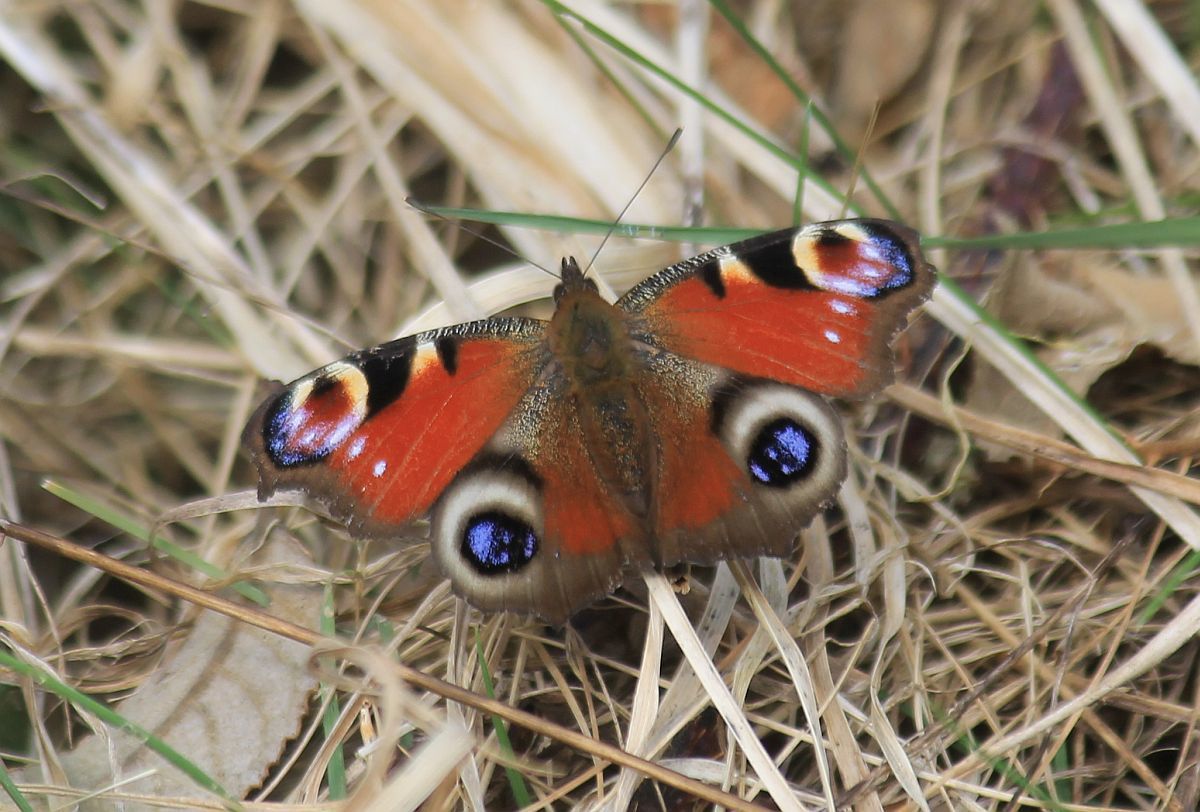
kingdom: Animalia
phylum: Arthropoda
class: Insecta
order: Lepidoptera
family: Nymphalidae
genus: Aglais
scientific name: Aglais io
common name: Peacock
